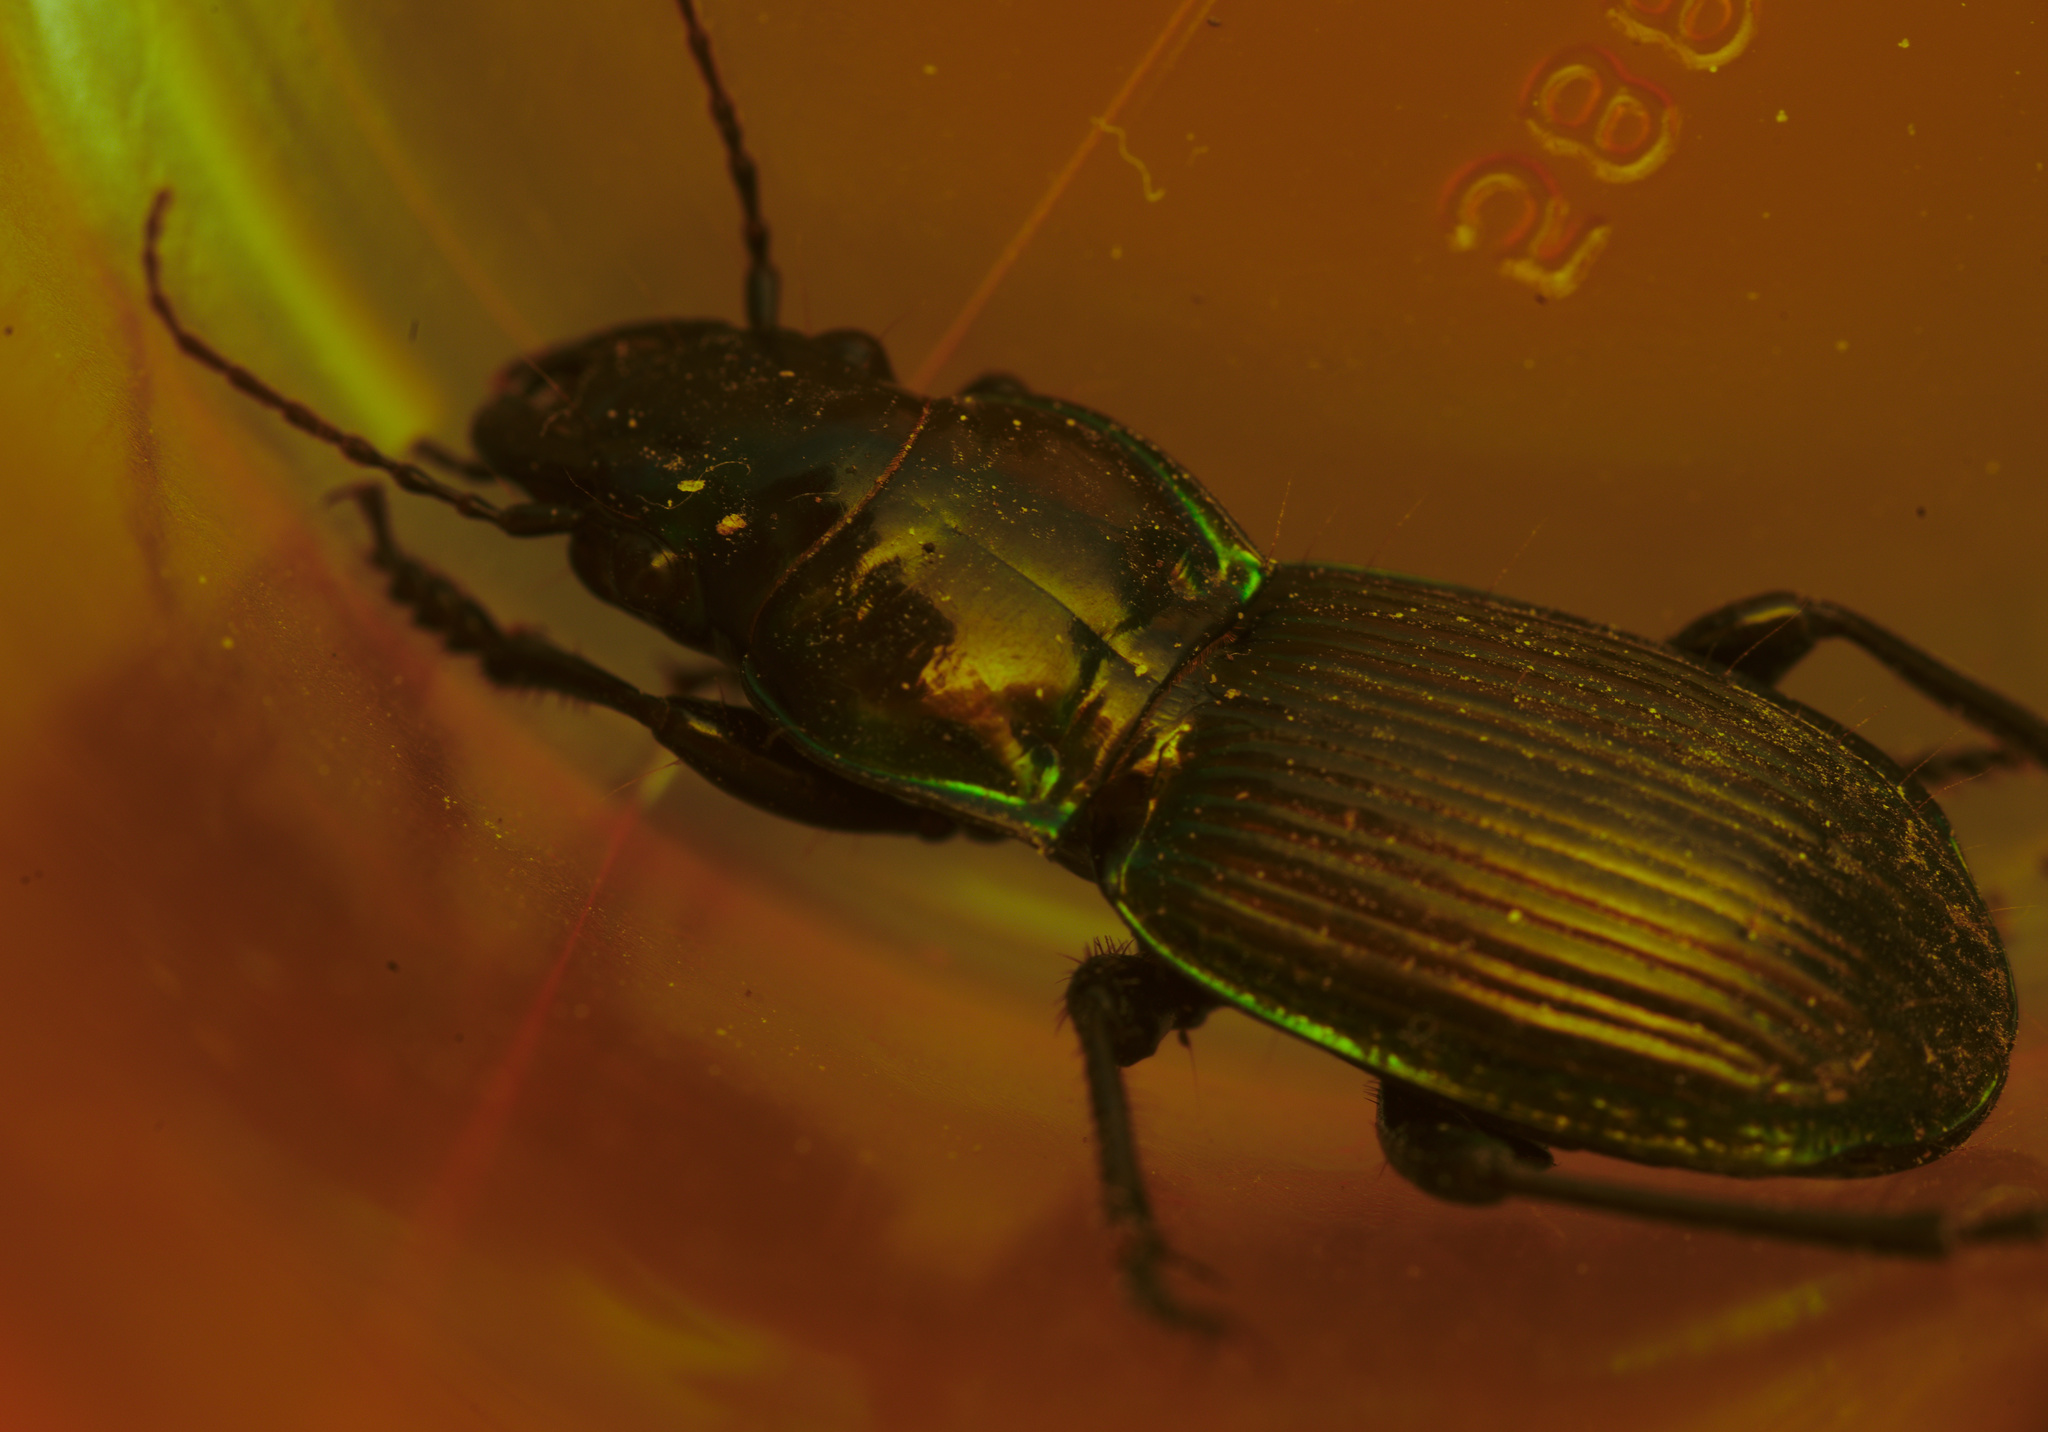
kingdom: Animalia
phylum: Arthropoda
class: Insecta
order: Coleoptera
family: Carabidae
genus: Megadromus
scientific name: Megadromus antarcticus
